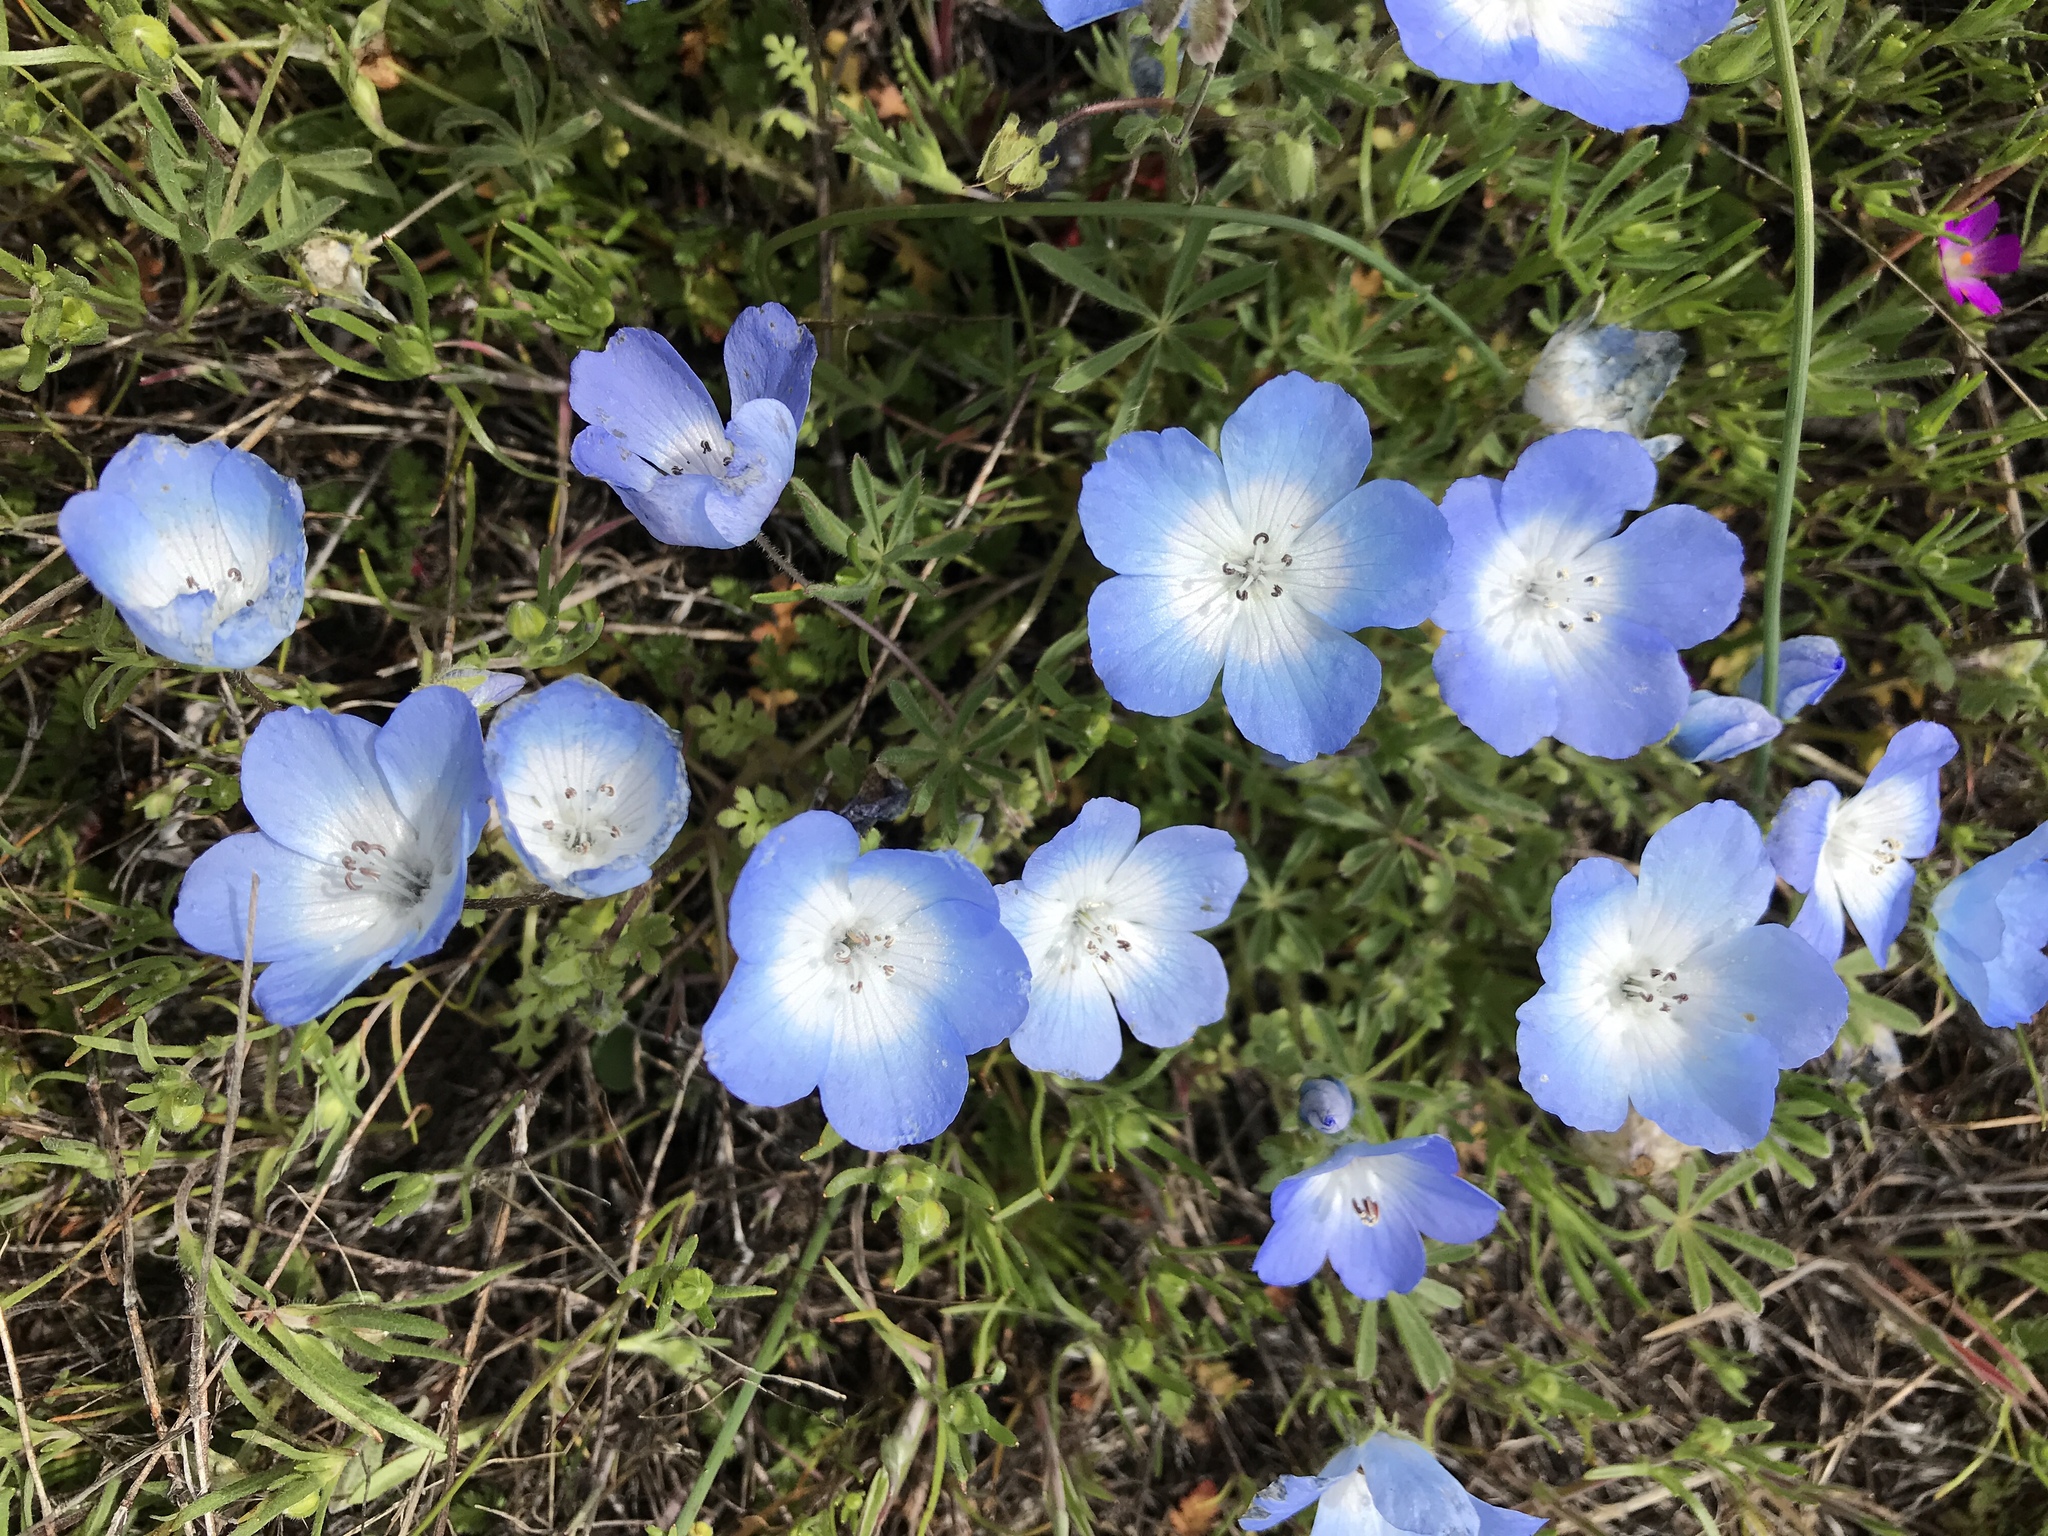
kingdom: Plantae
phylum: Tracheophyta
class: Magnoliopsida
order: Boraginales
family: Hydrophyllaceae
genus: Nemophila
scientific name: Nemophila menziesii
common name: Baby's-blue-eyes
